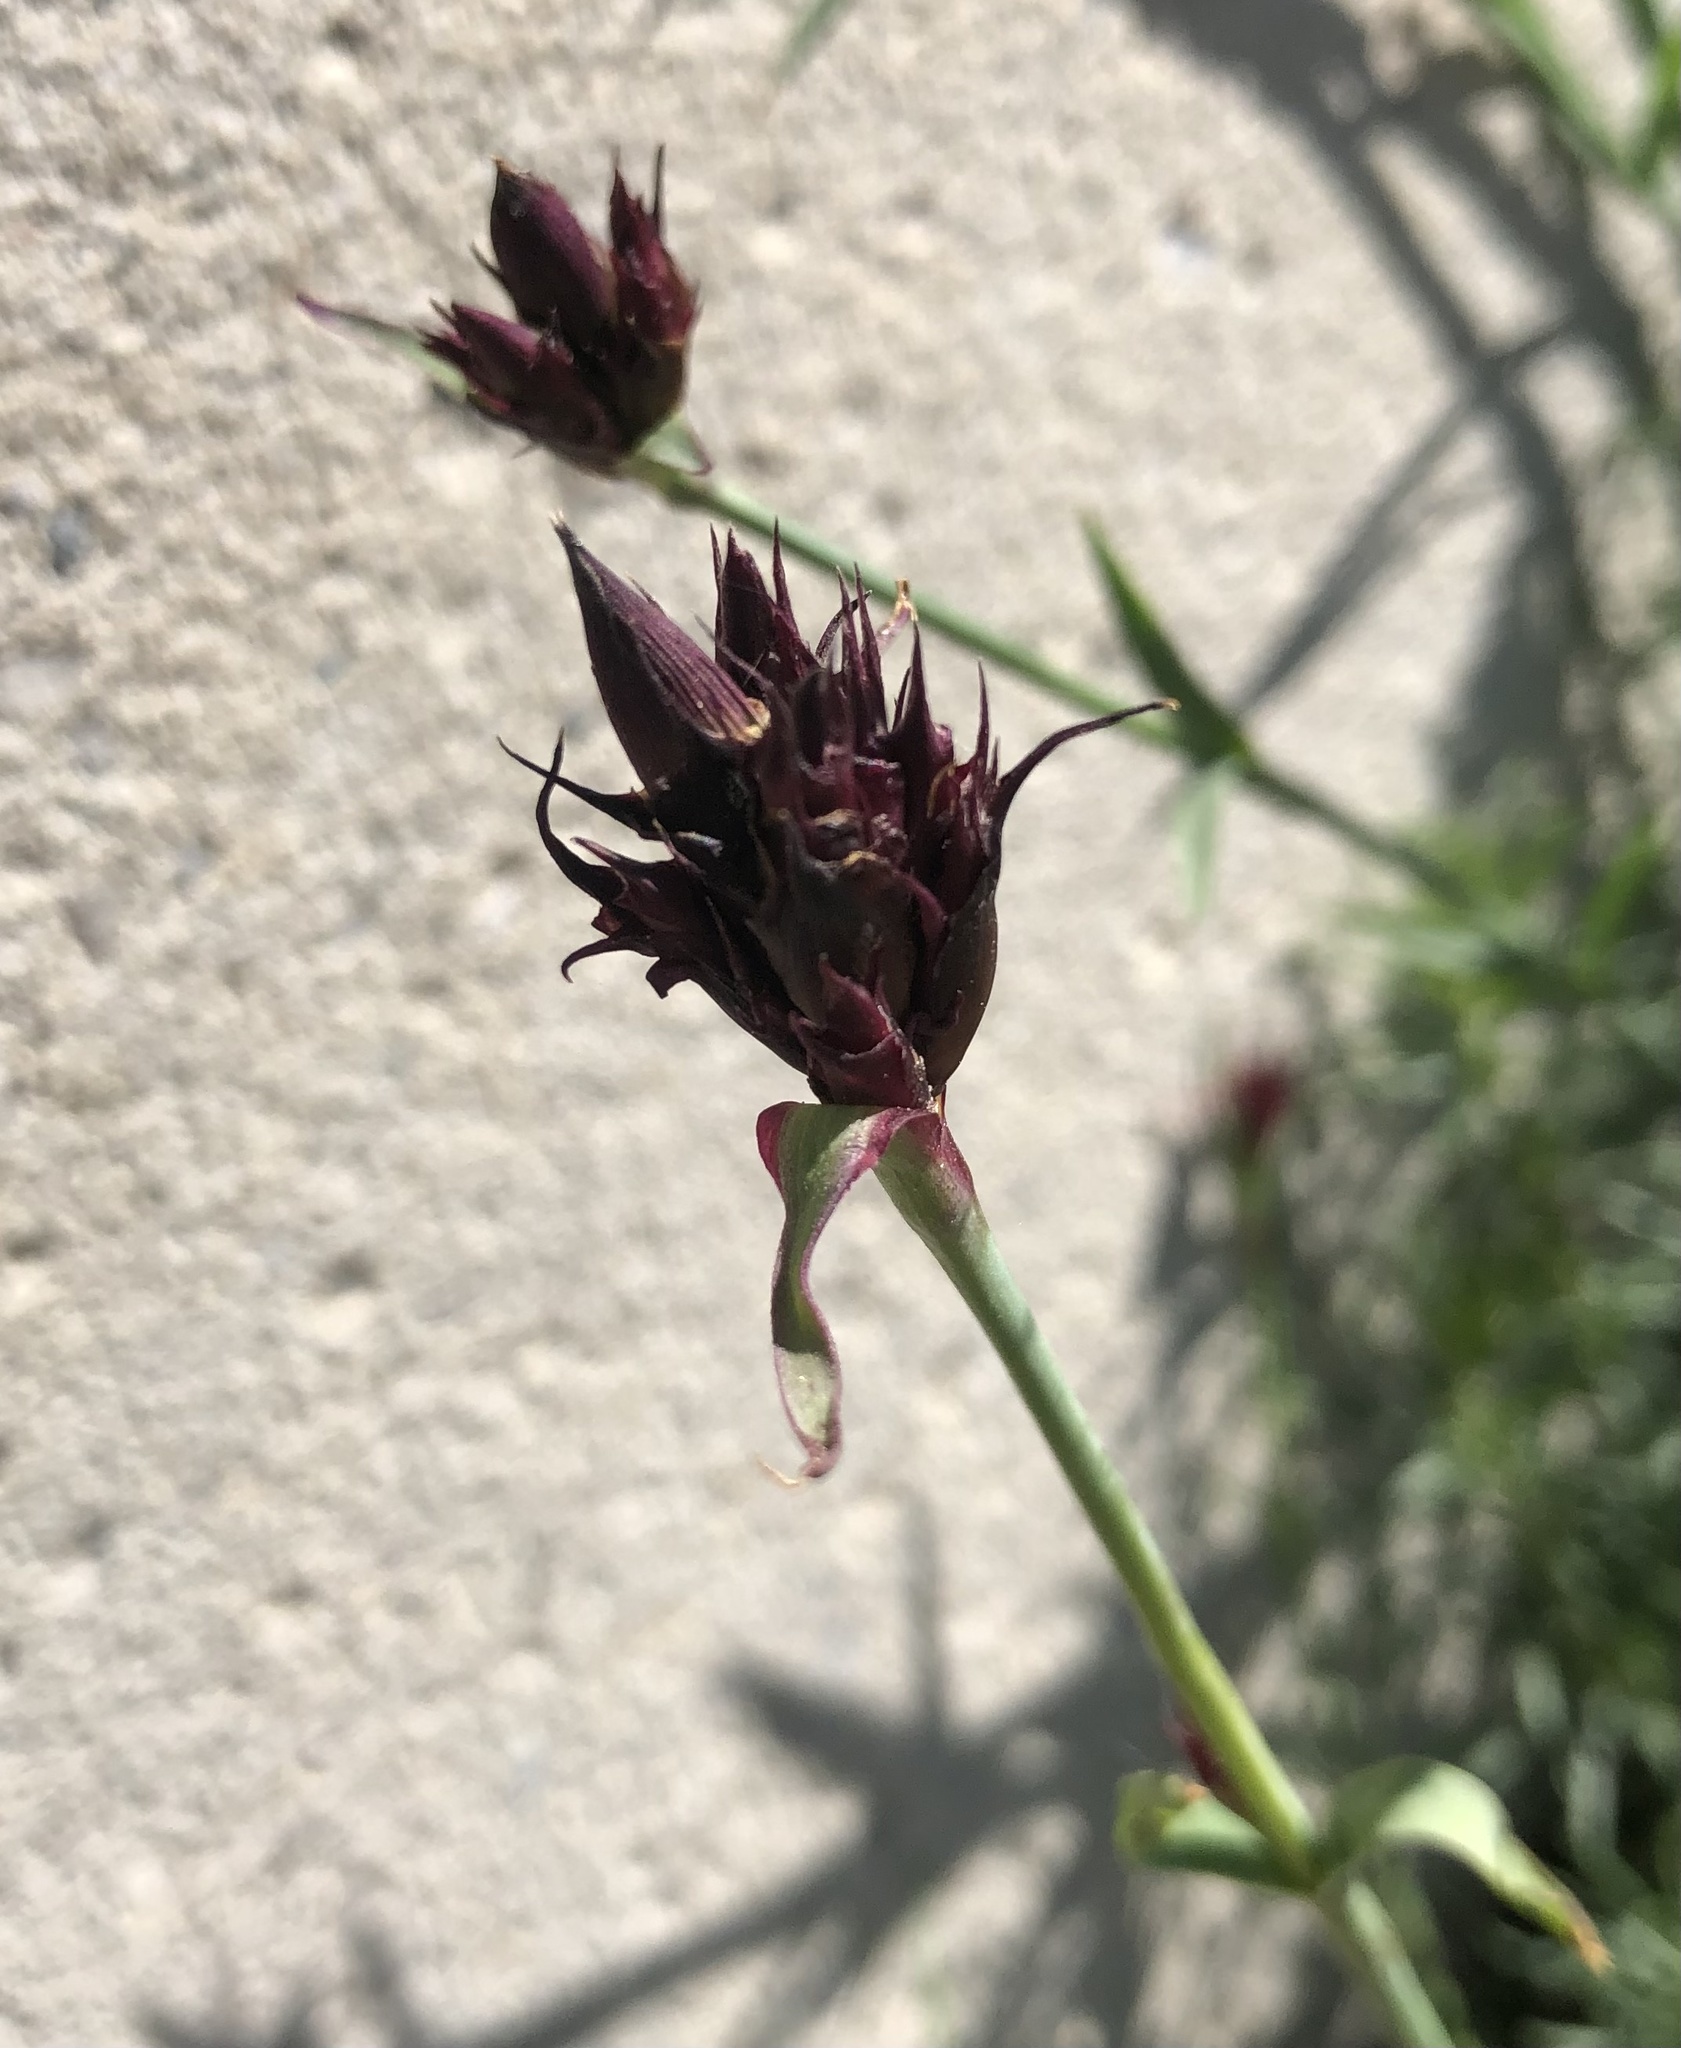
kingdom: Plantae
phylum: Tracheophyta
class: Magnoliopsida
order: Caryophyllales
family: Caryophyllaceae
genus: Dianthus
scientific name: Dianthus carthusianorum
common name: Carthusian pink
